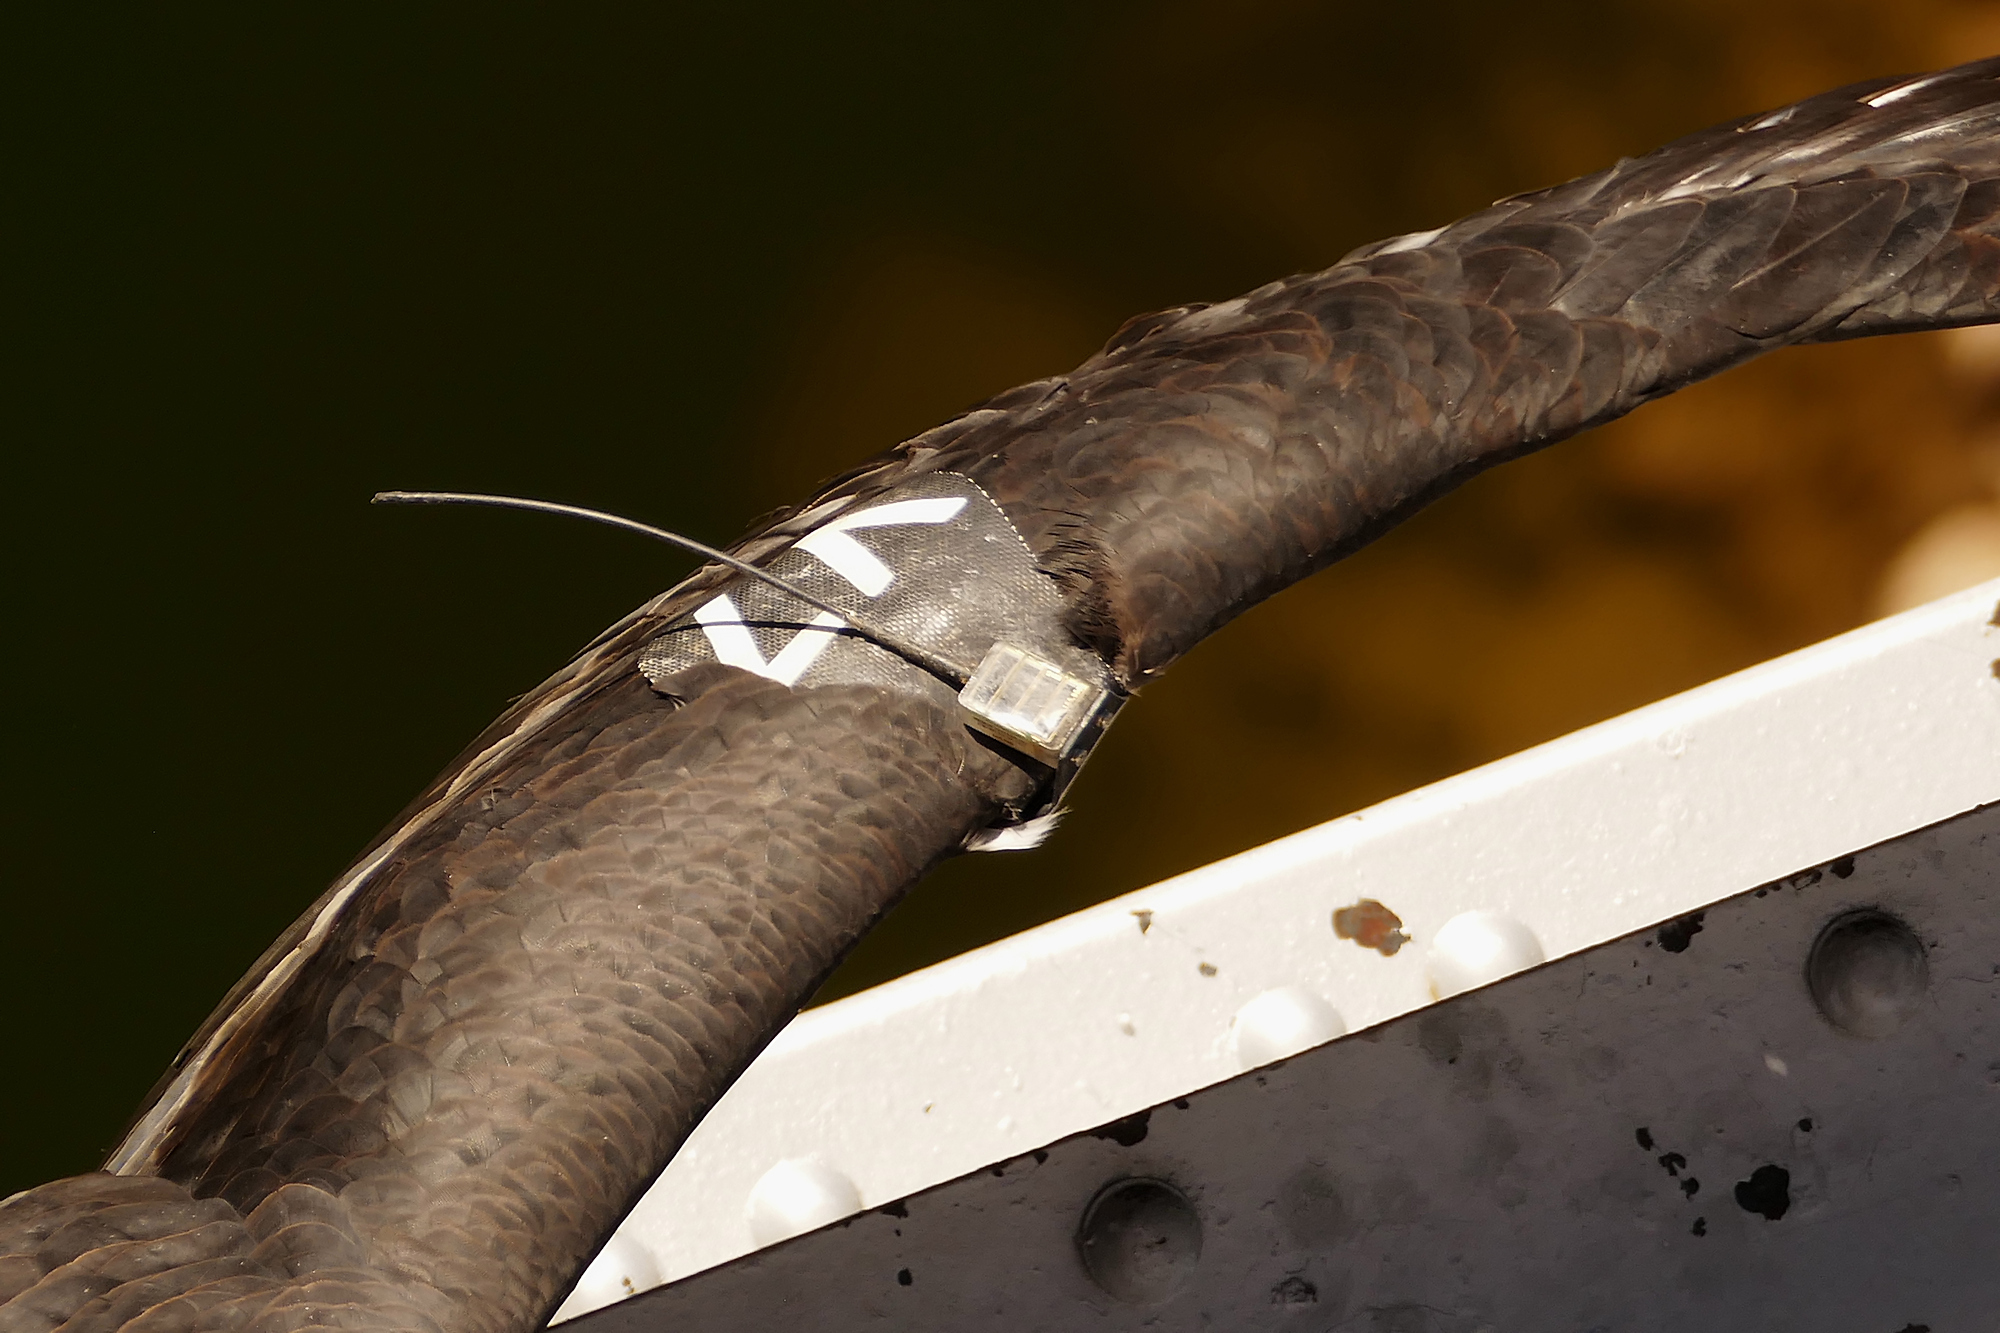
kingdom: Animalia
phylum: Chordata
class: Aves
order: Accipitriformes
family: Cathartidae
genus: Gymnogyps
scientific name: Gymnogyps californianus
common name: California condor
